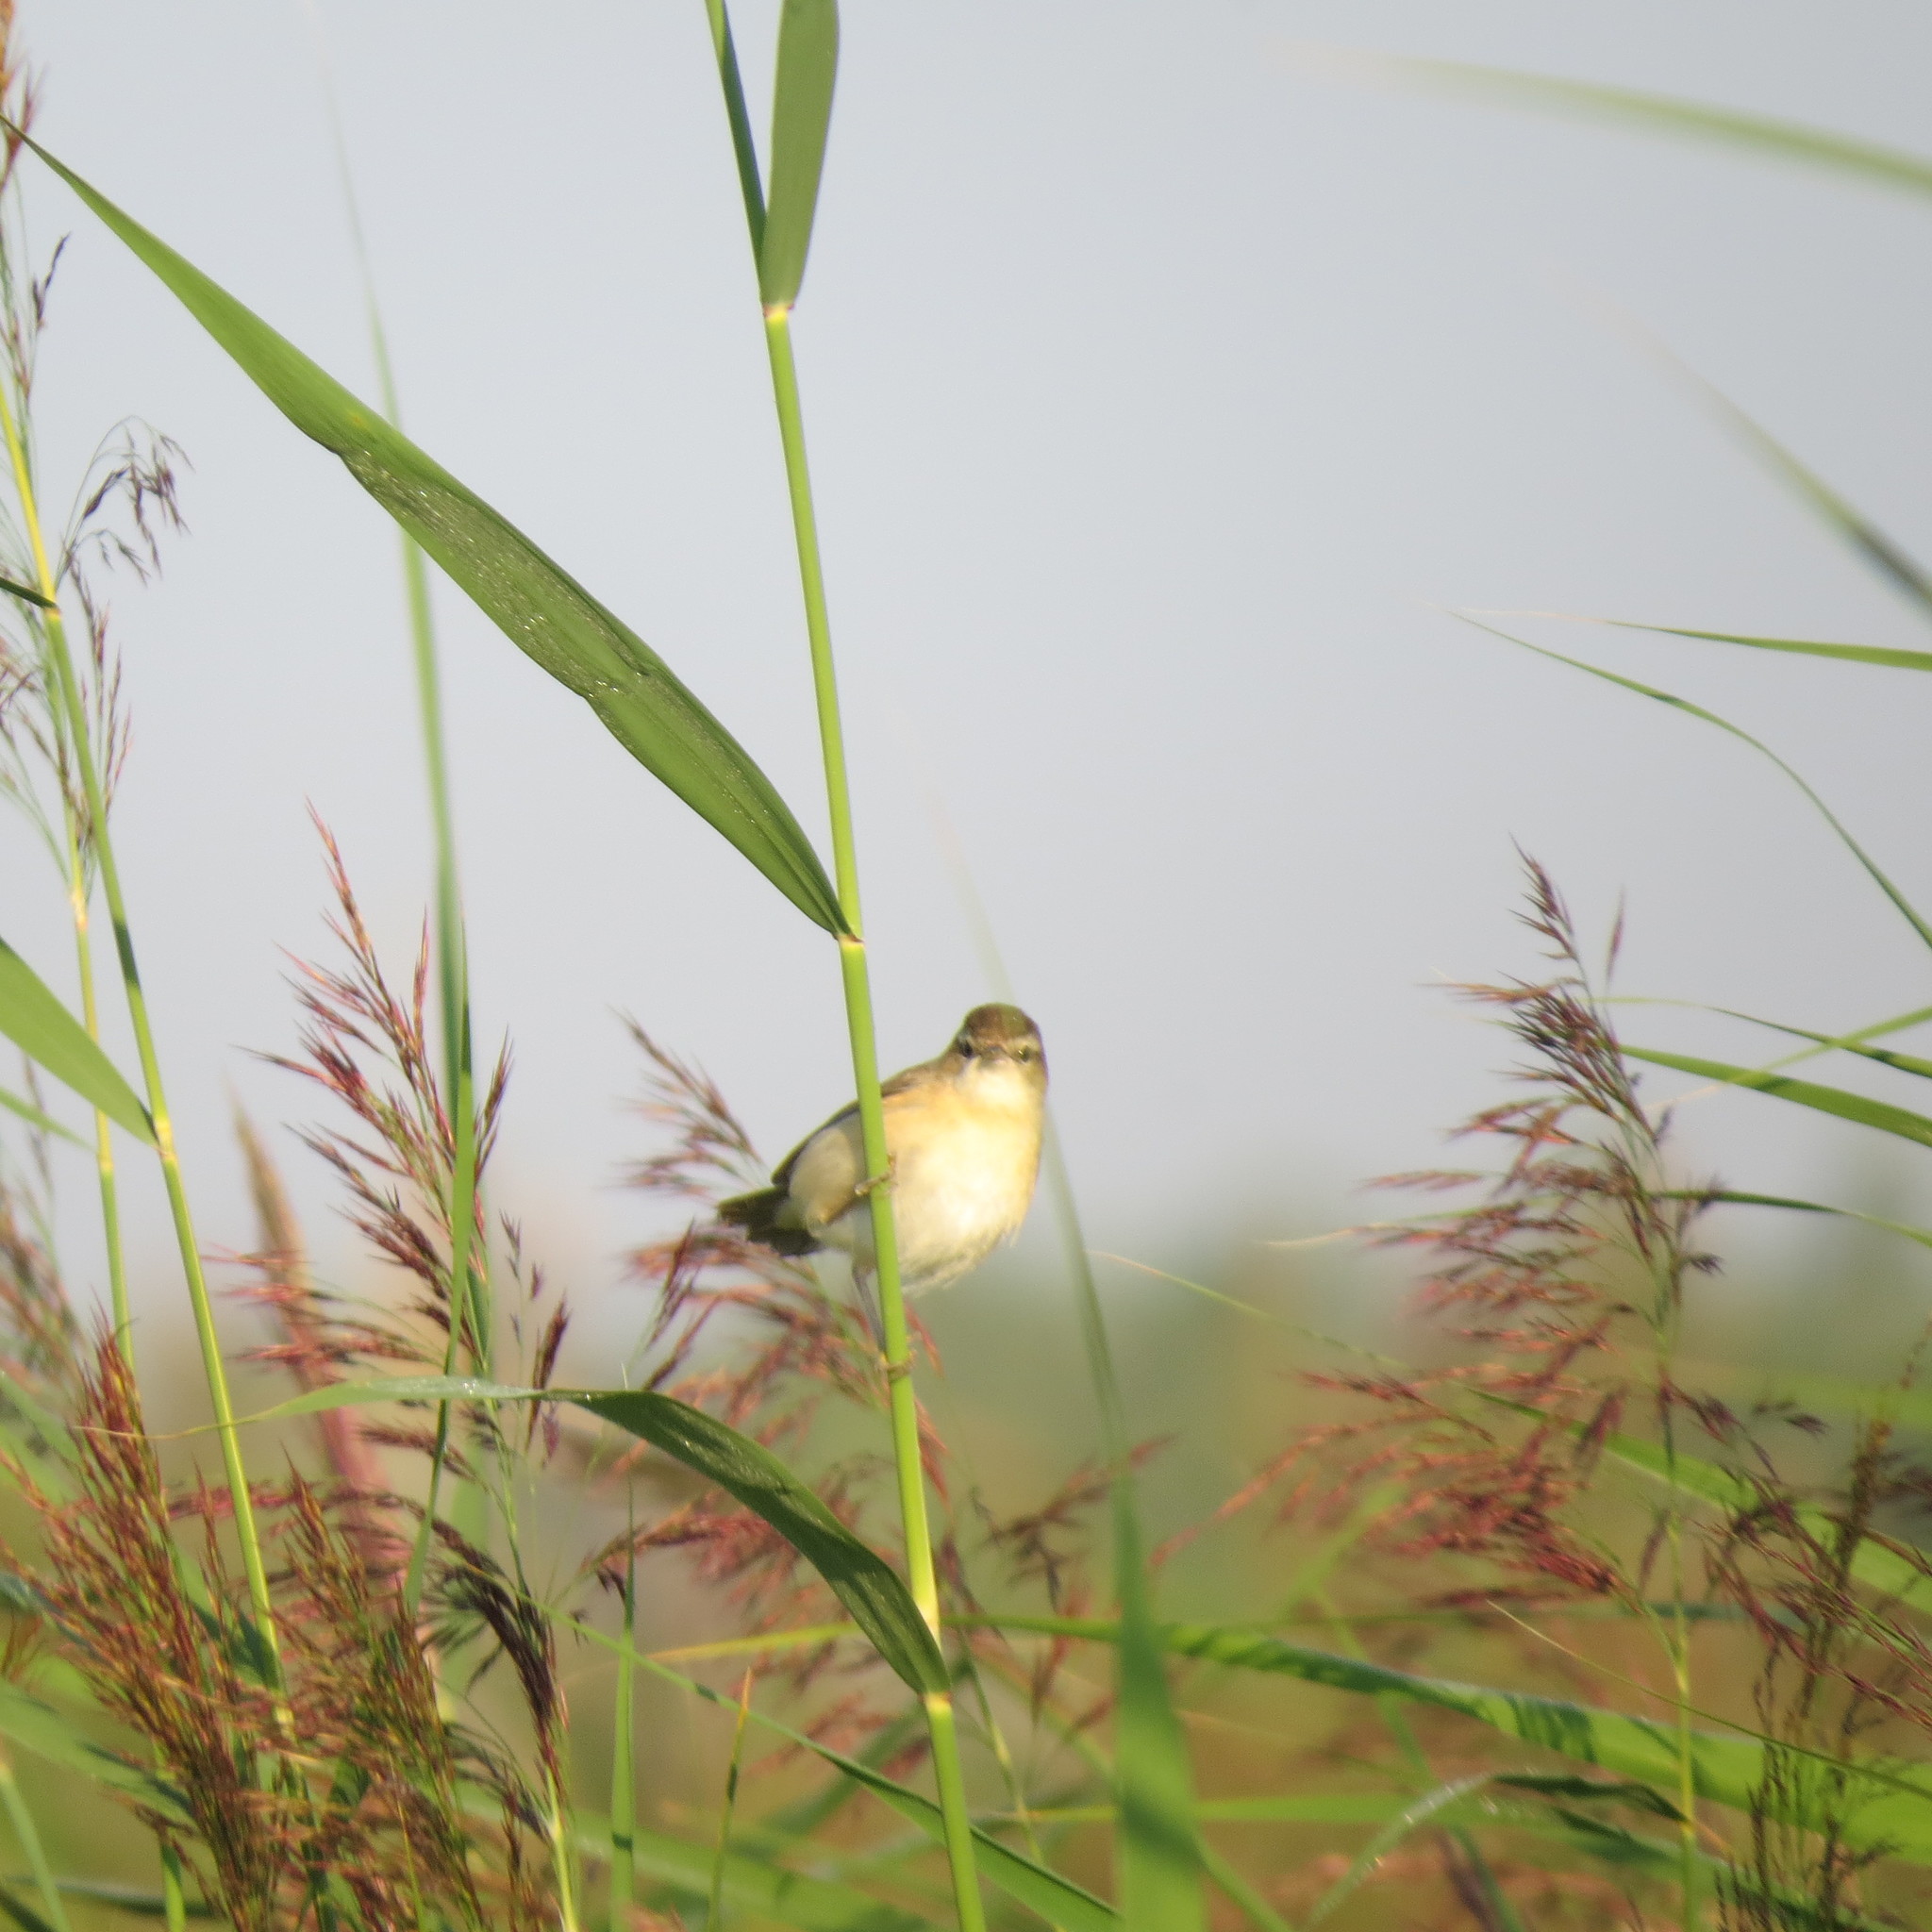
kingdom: Animalia
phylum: Chordata
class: Aves
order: Passeriformes
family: Acrocephalidae
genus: Iduna
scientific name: Iduna caligata
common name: Booted warbler
